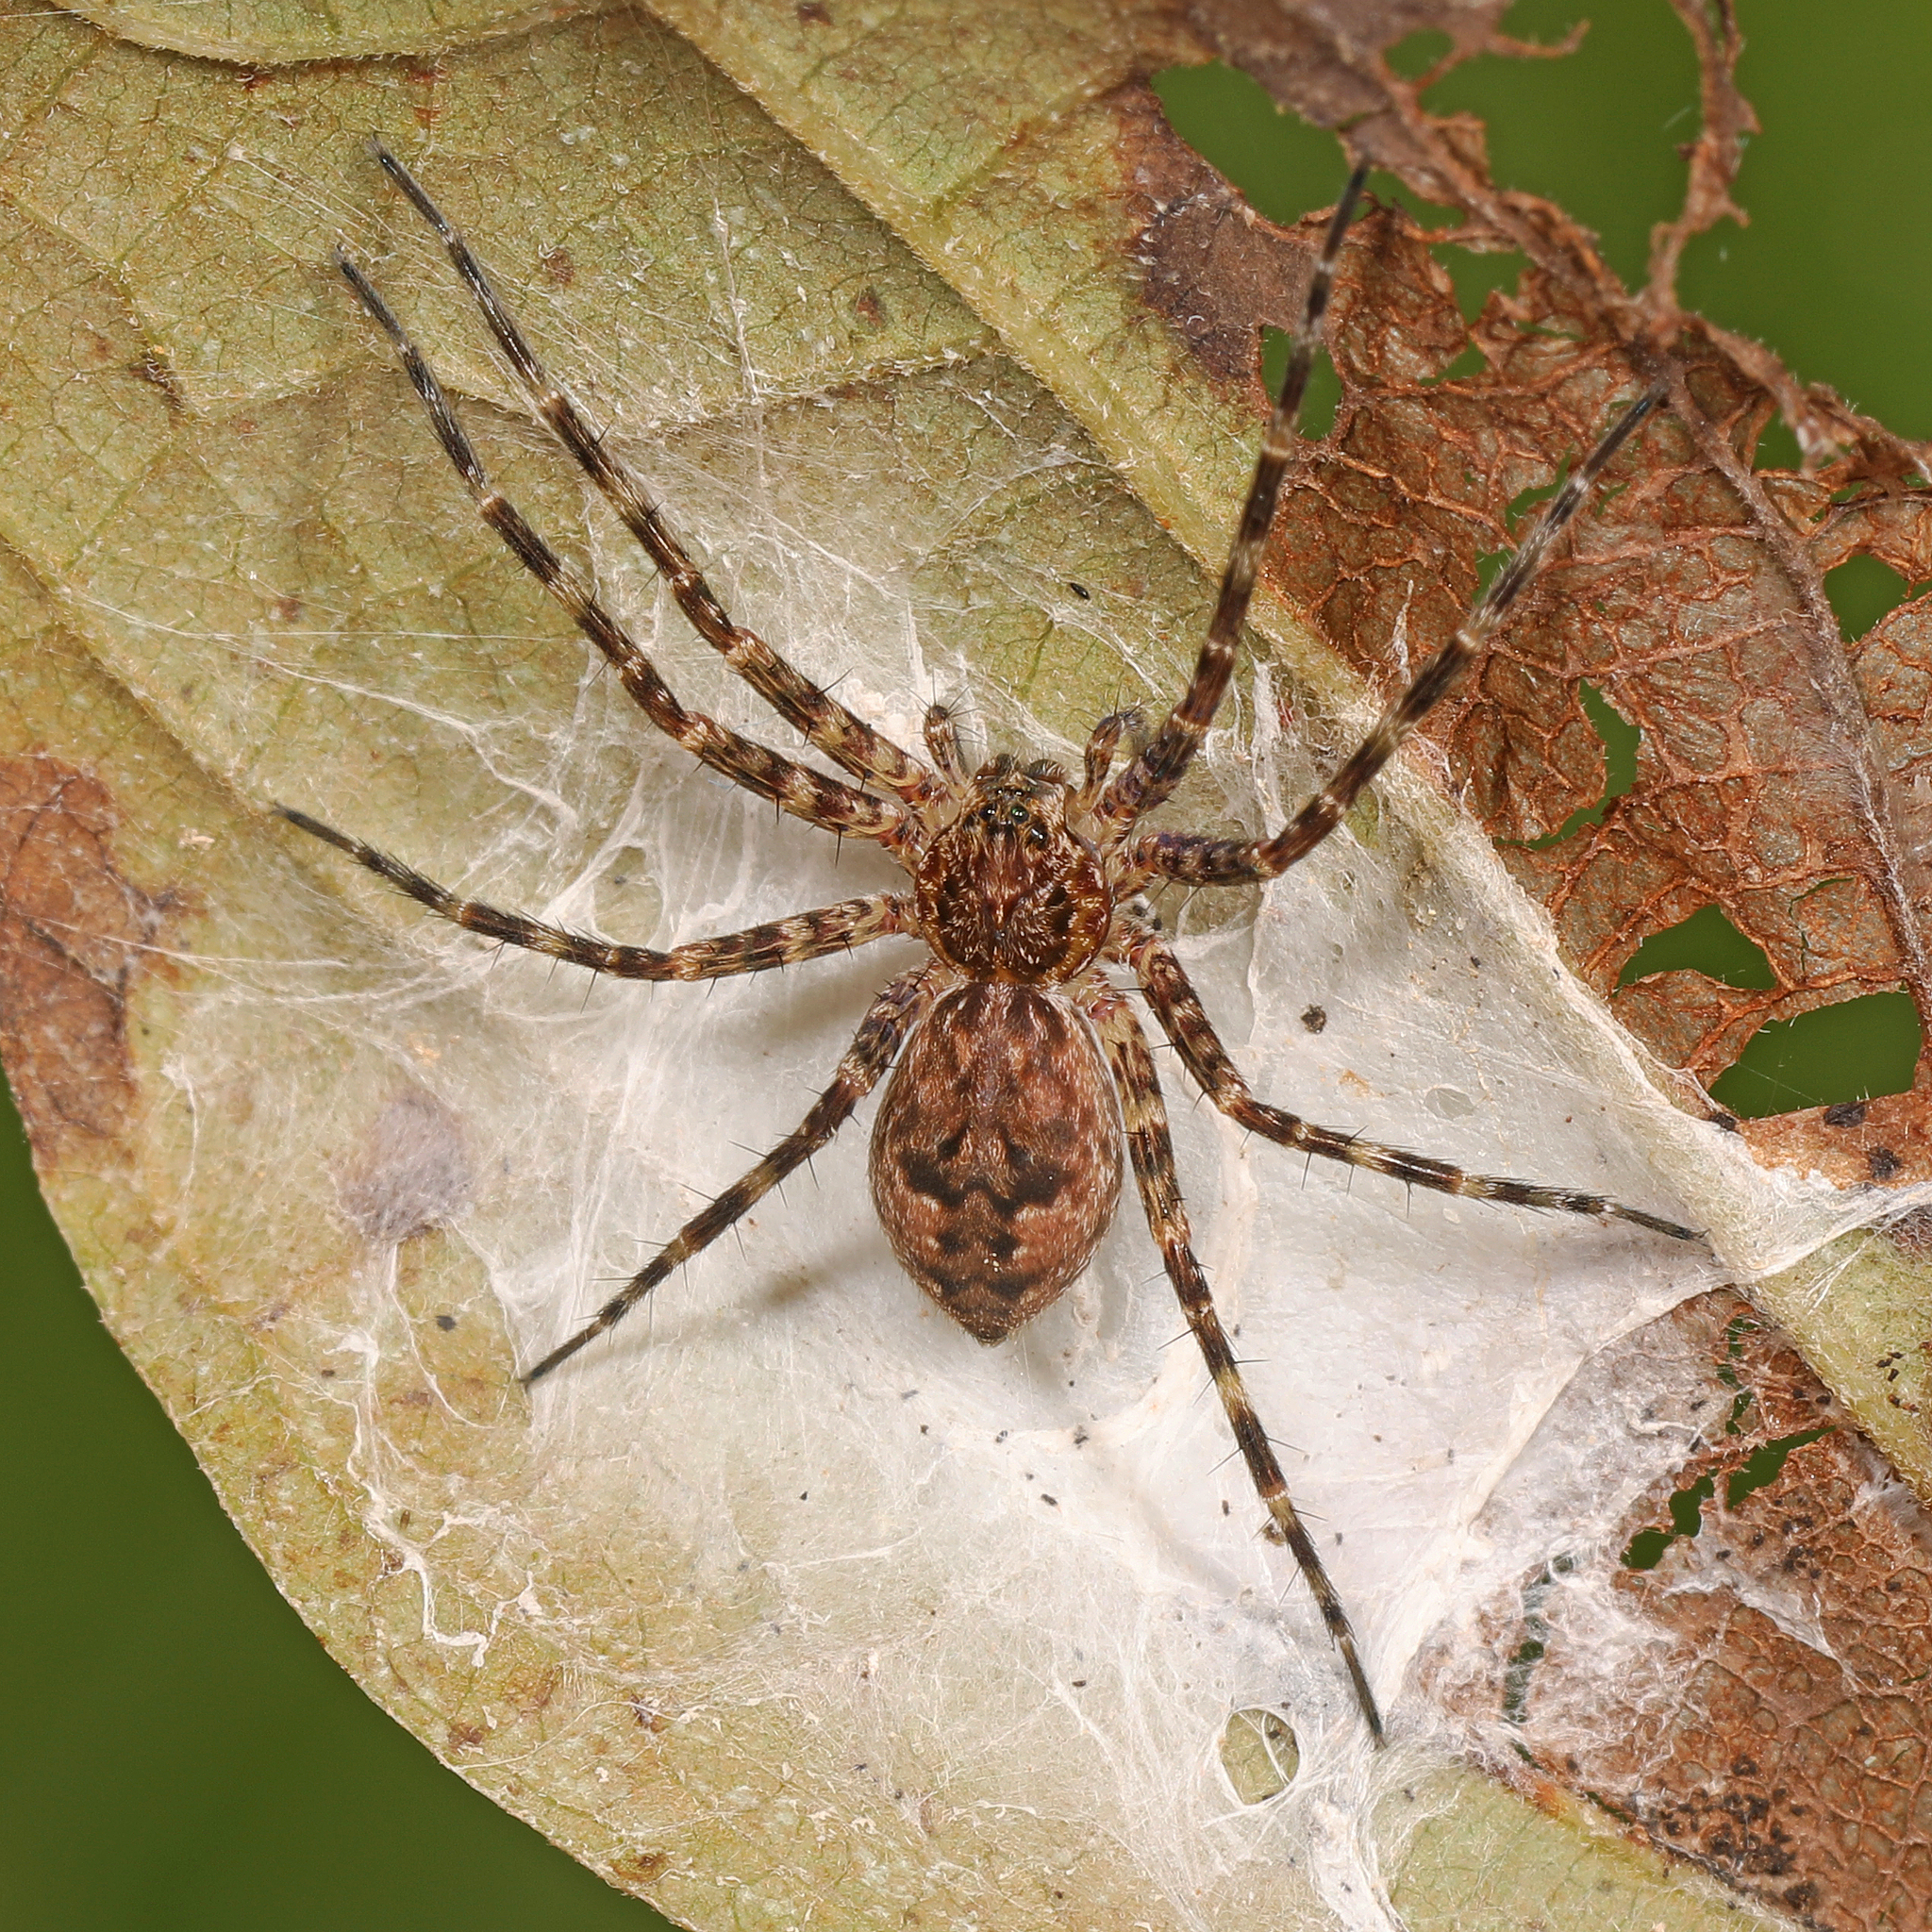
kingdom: Animalia
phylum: Arthropoda
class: Arachnida
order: Araneae
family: Pisauridae
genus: Dolomedes
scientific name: Dolomedes tenebrosus
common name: Dark fishing spider
